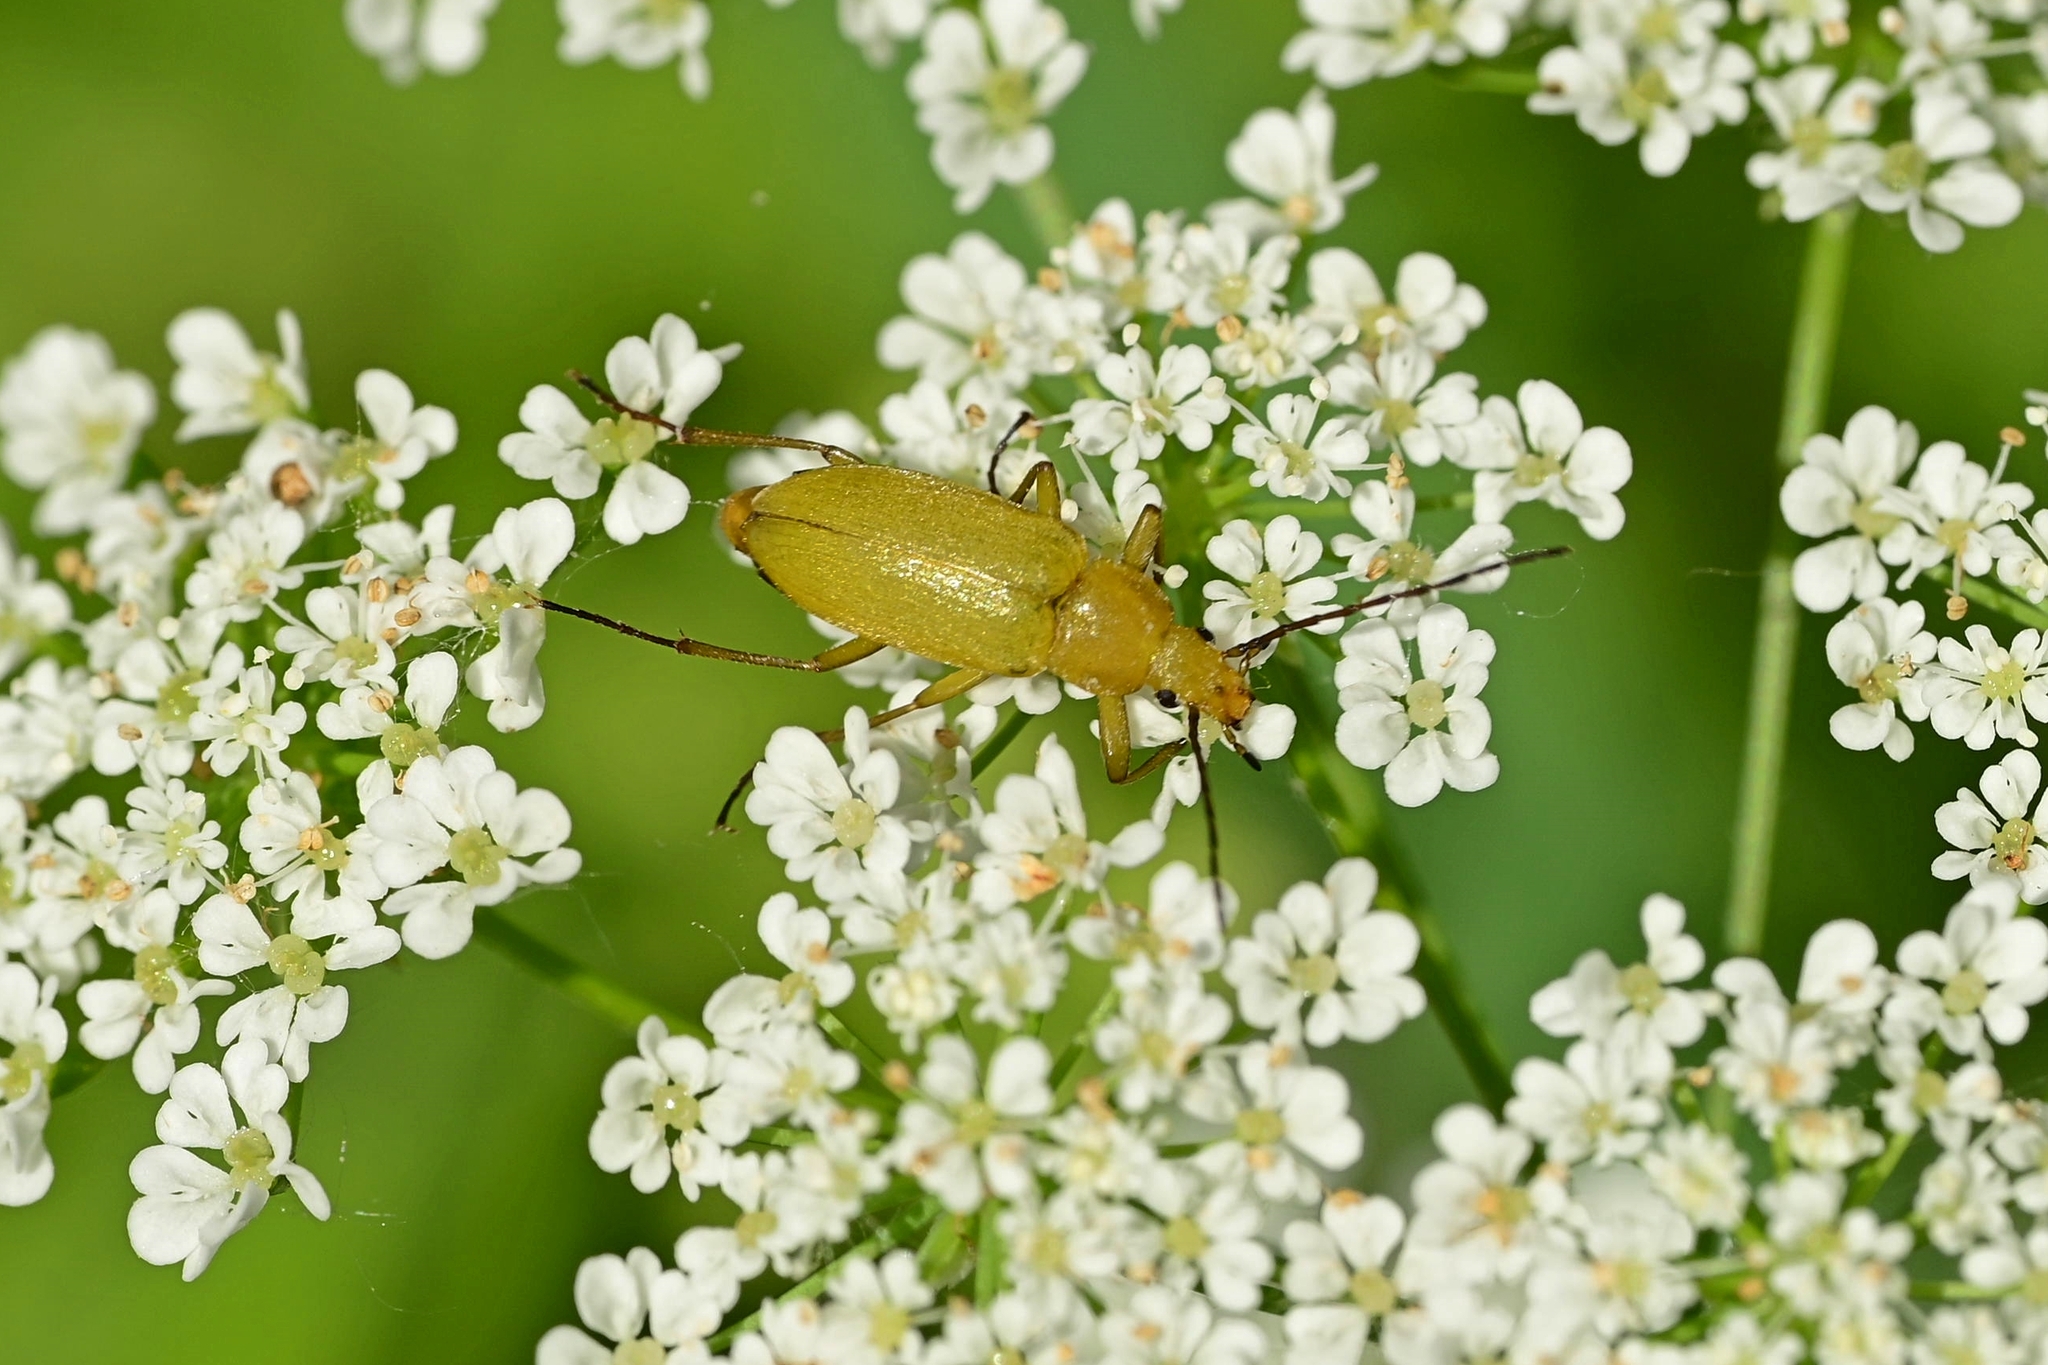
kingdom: Animalia
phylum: Arthropoda
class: Insecta
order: Coleoptera
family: Tenebrionidae
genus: Cteniopus
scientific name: Cteniopus sulphureus
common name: Sulphur beetle
